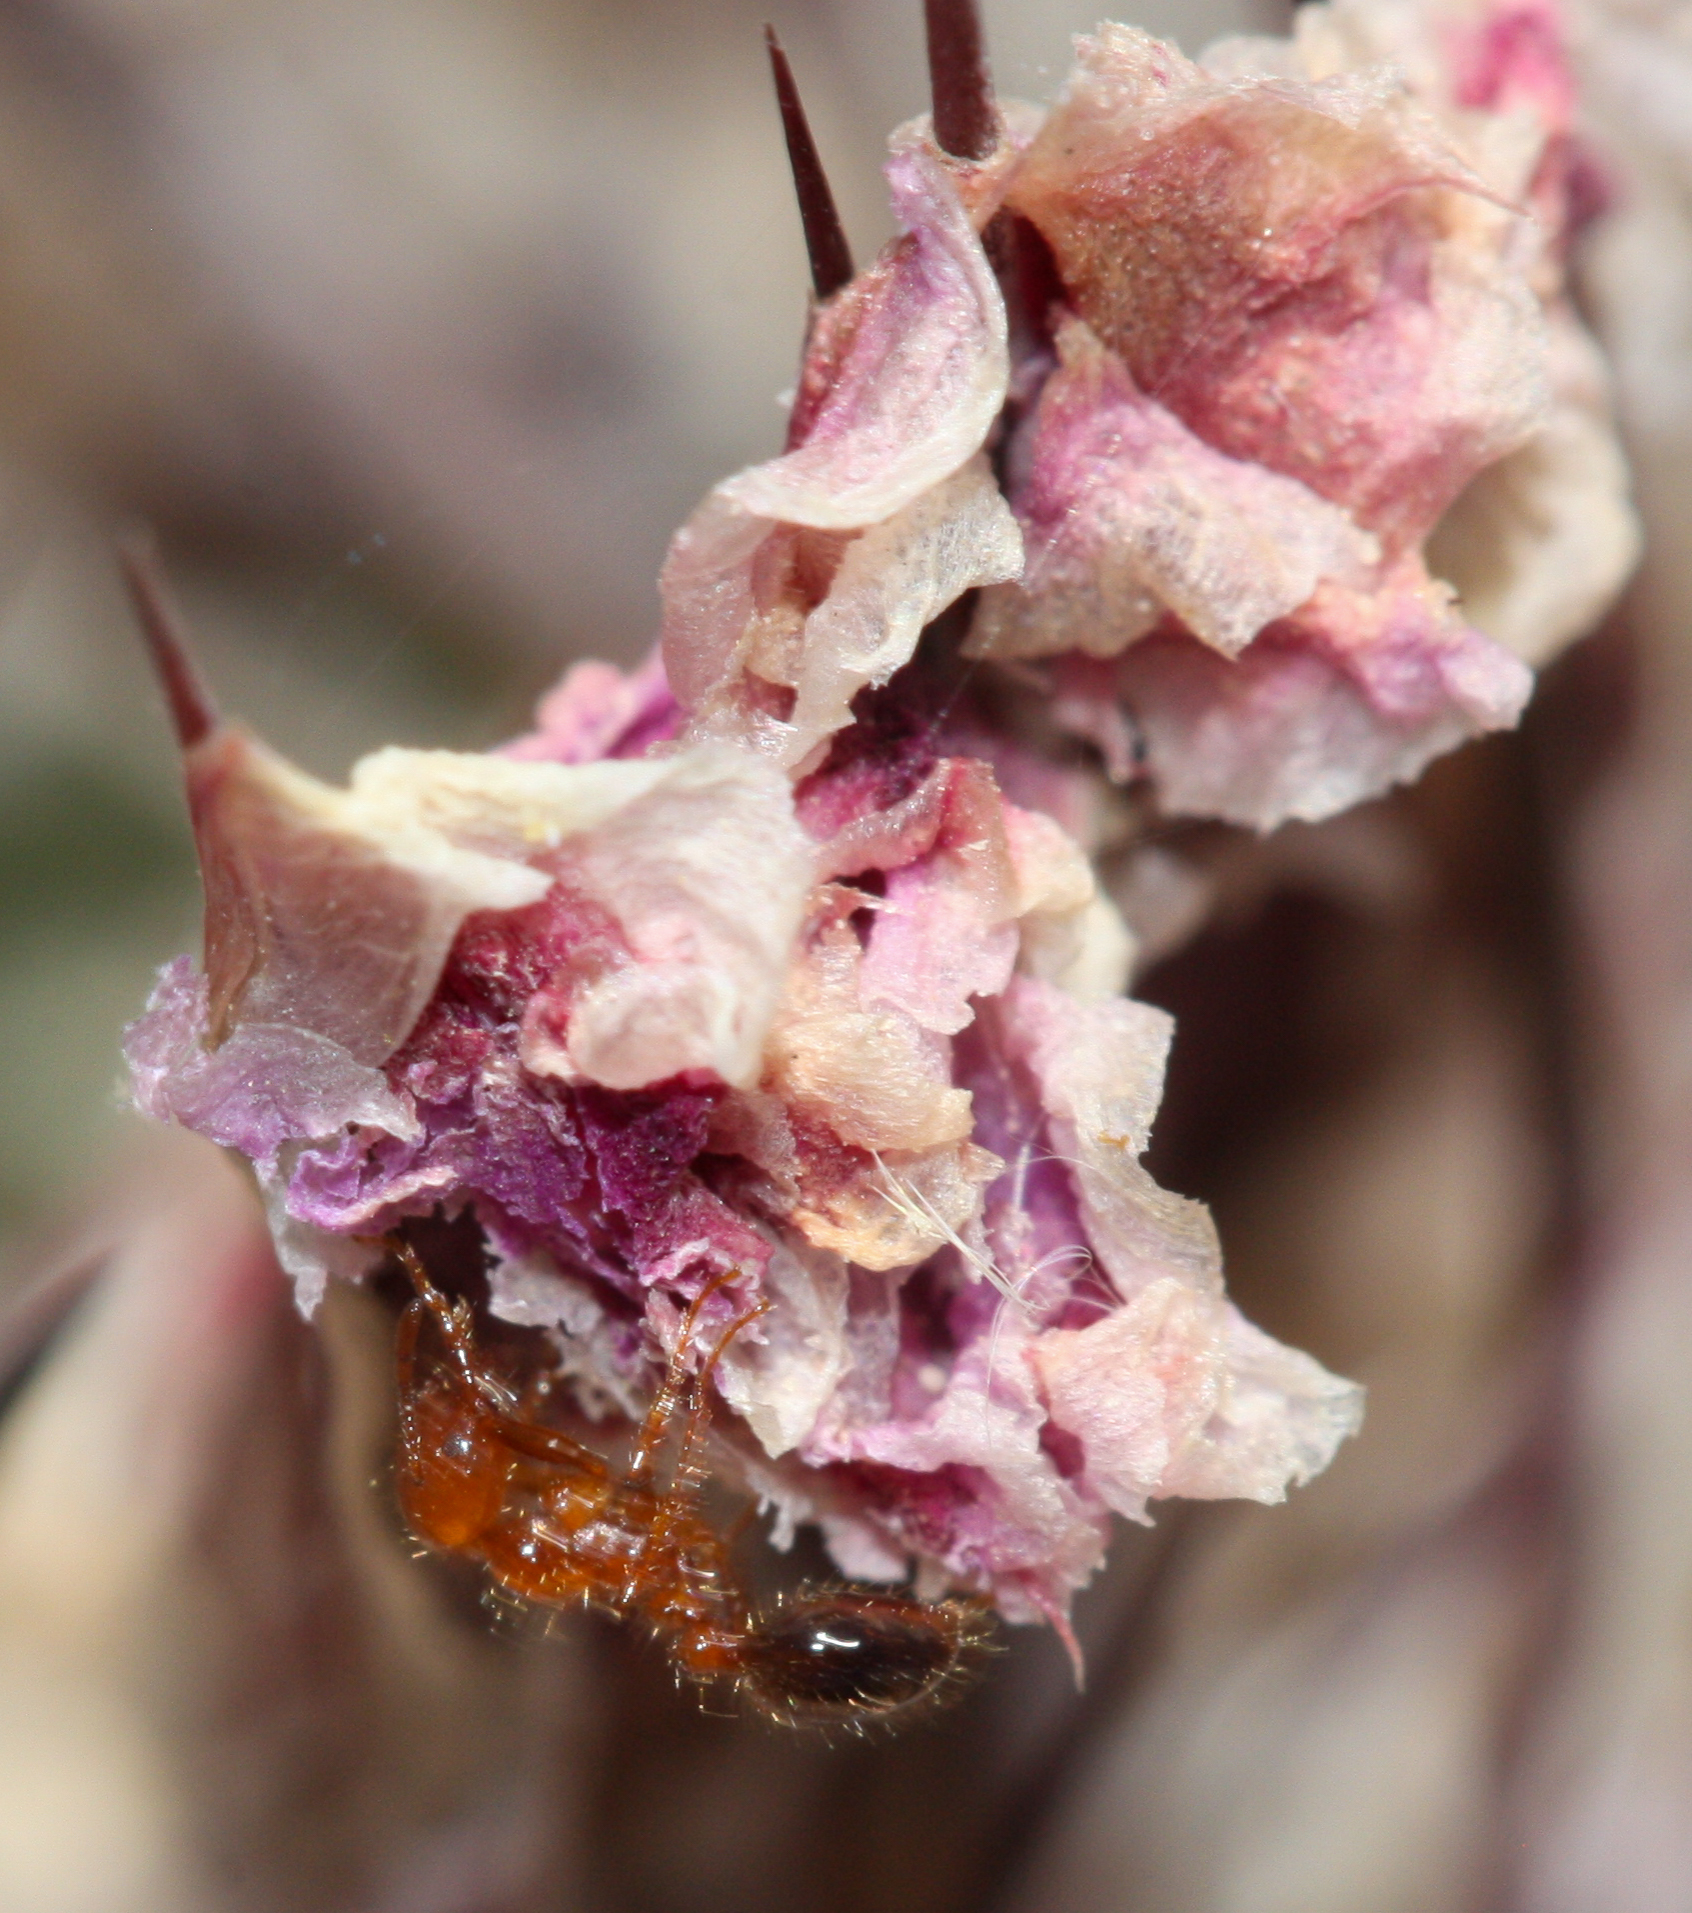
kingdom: Animalia
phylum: Arthropoda
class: Insecta
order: Hymenoptera
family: Formicidae
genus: Solenopsis
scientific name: Solenopsis xyloni
